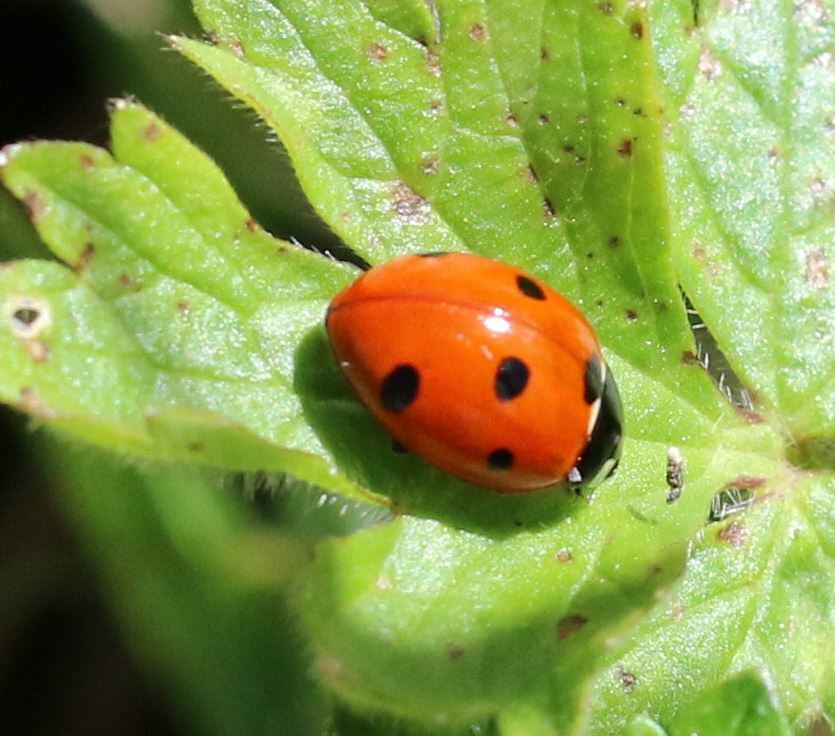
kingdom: Animalia
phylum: Arthropoda
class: Insecta
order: Coleoptera
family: Coccinellidae
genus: Coccinella
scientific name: Coccinella septempunctata
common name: Sevenspotted lady beetle
